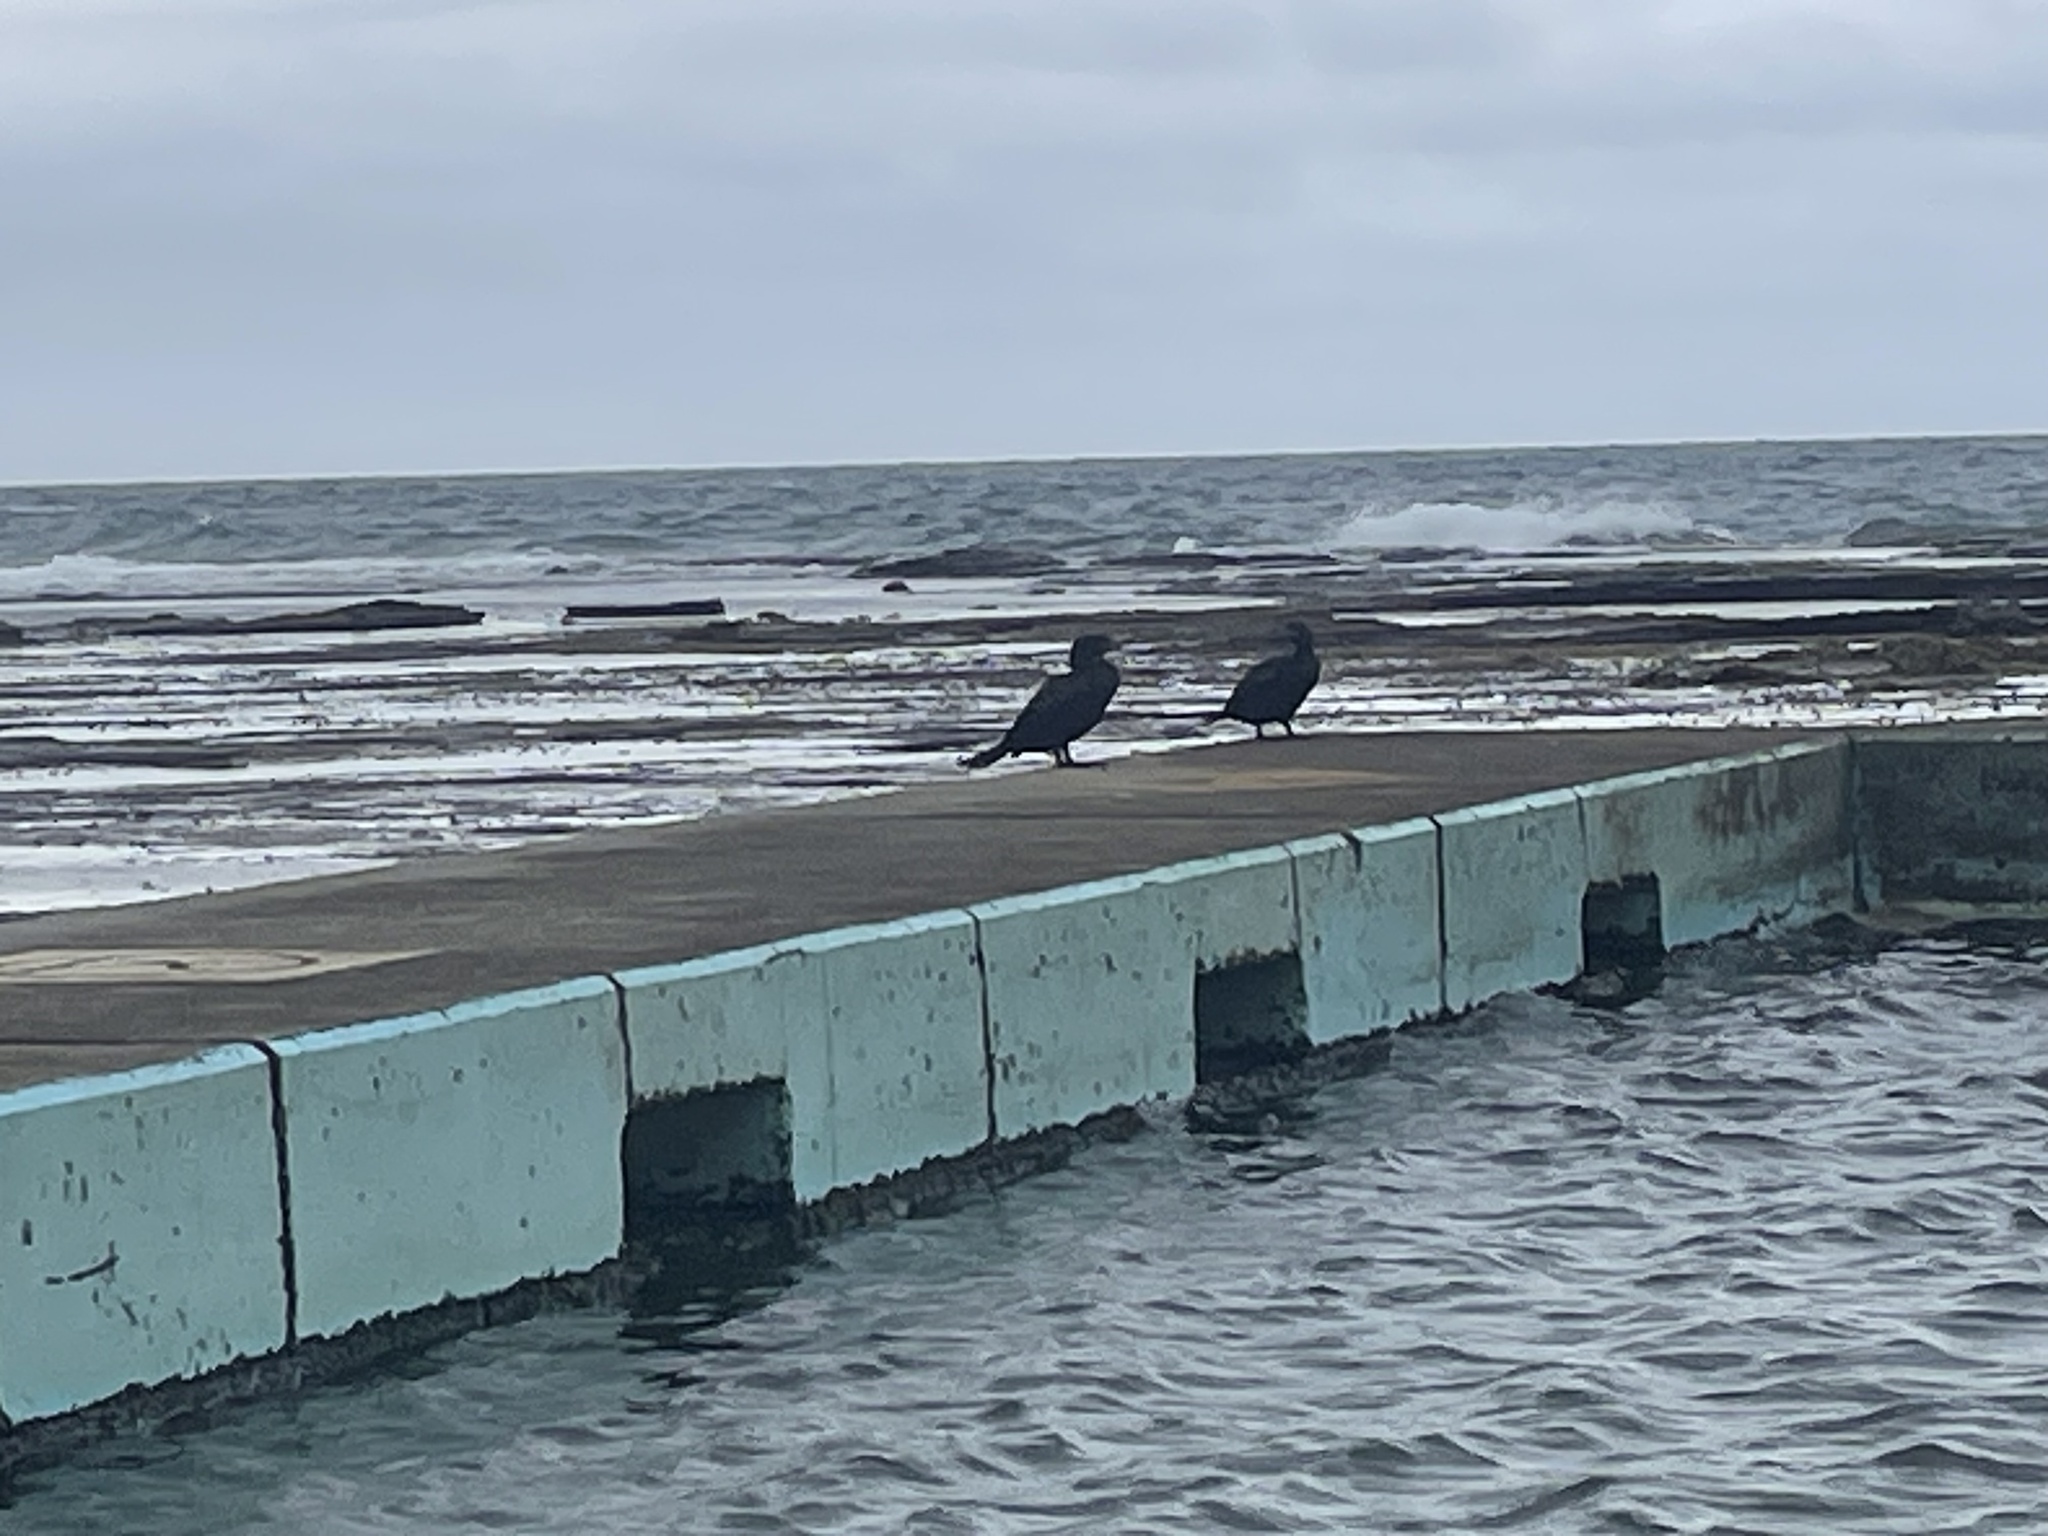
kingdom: Animalia
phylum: Chordata
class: Aves
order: Suliformes
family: Phalacrocoracidae
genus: Phalacrocorax
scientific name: Phalacrocorax sulcirostris
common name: Little black cormorant
